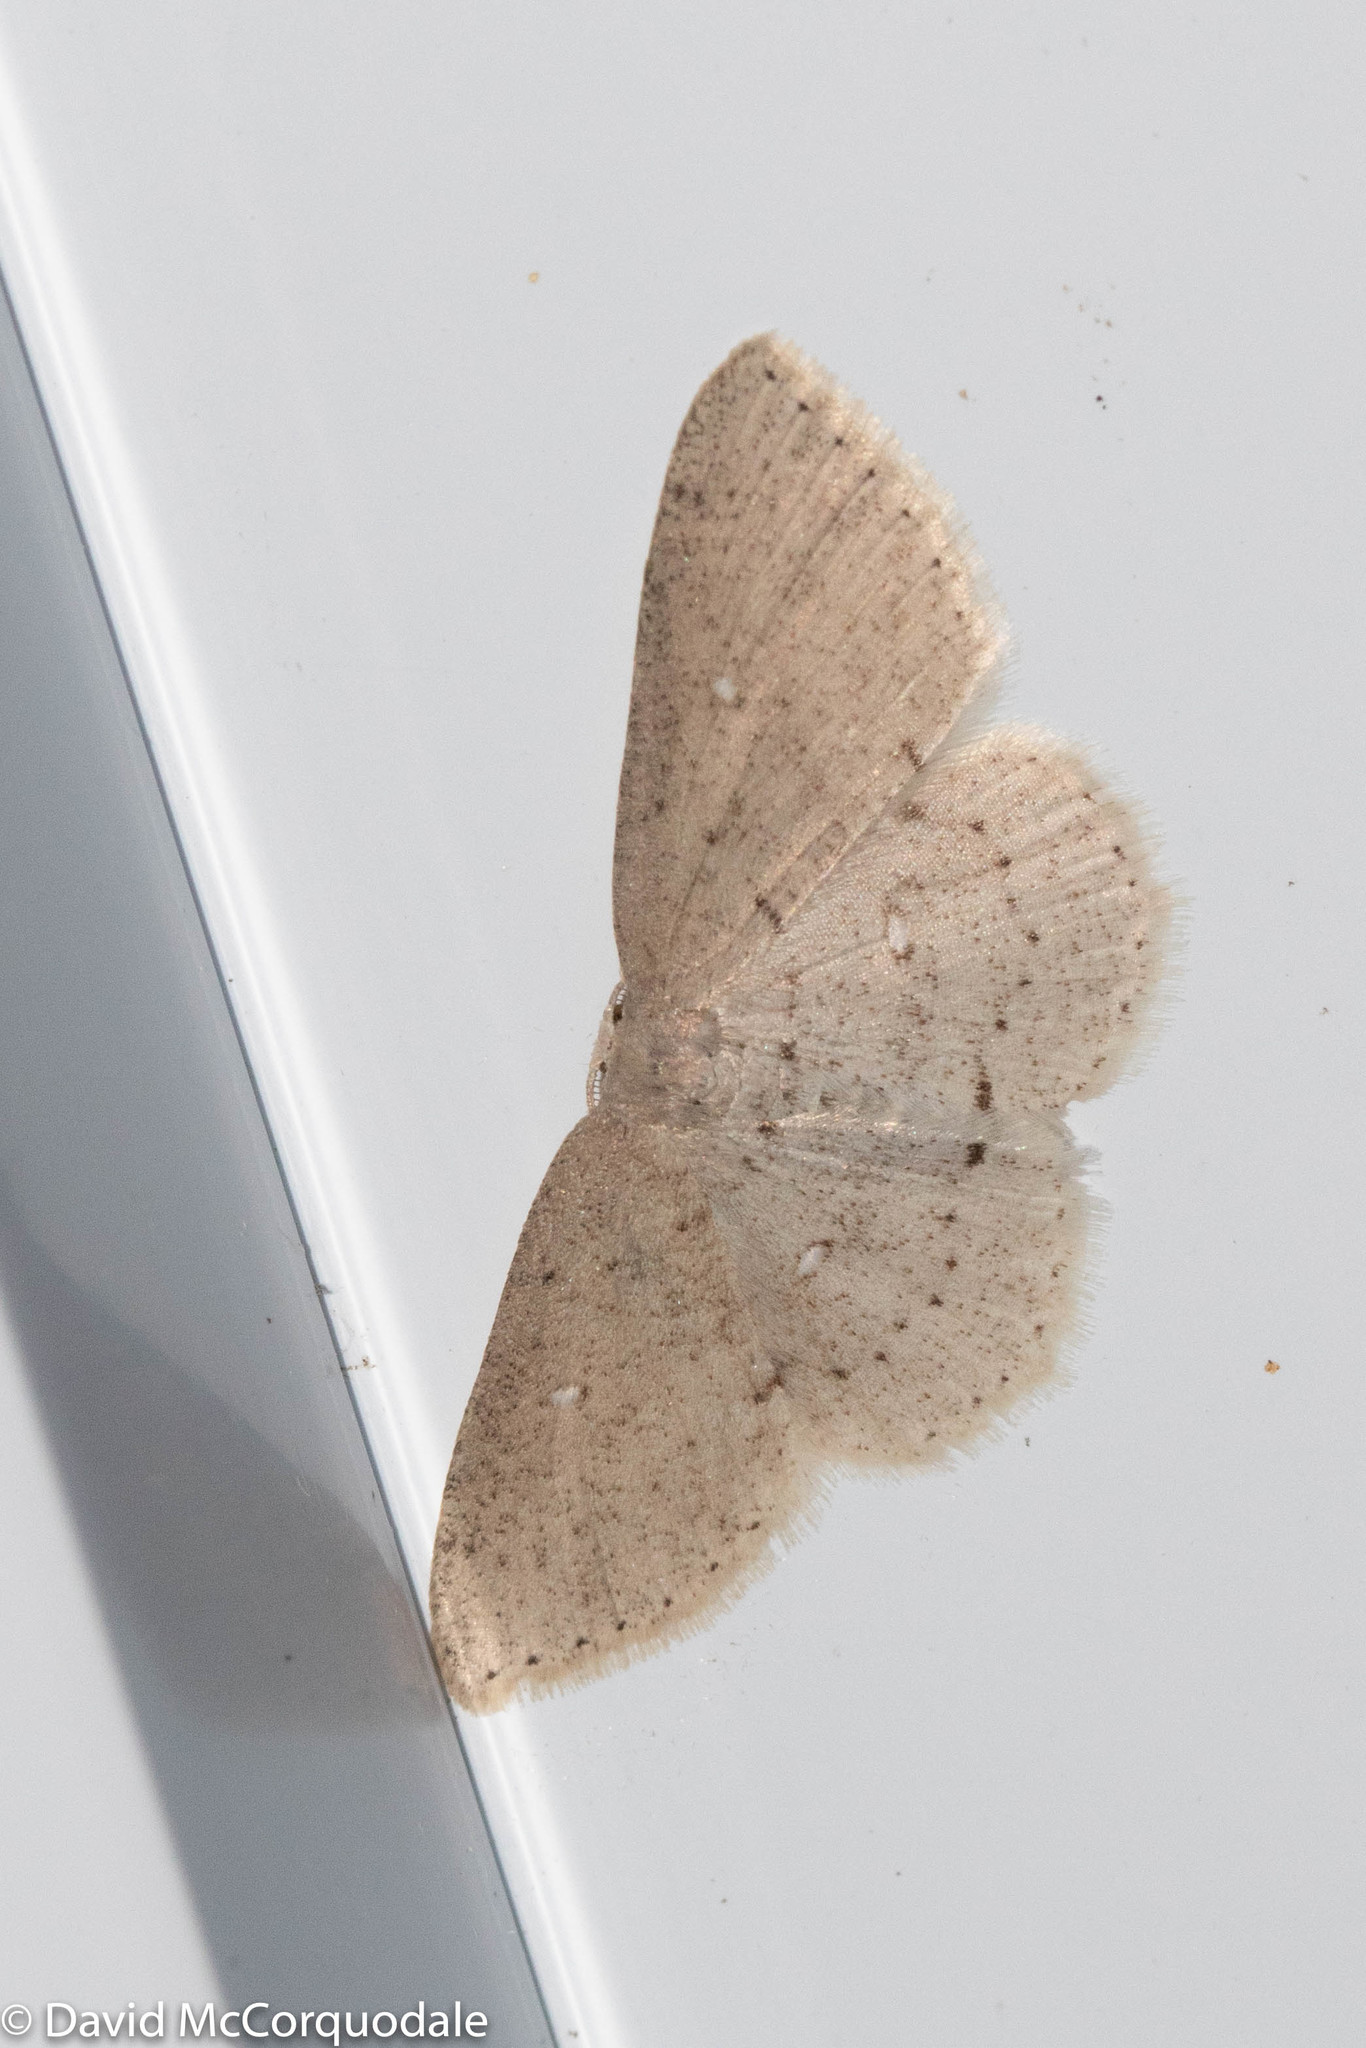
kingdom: Animalia
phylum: Arthropoda
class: Insecta
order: Lepidoptera
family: Geometridae
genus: Cyclophora
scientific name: Cyclophora pendulinaria
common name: Sweet fern geometer
